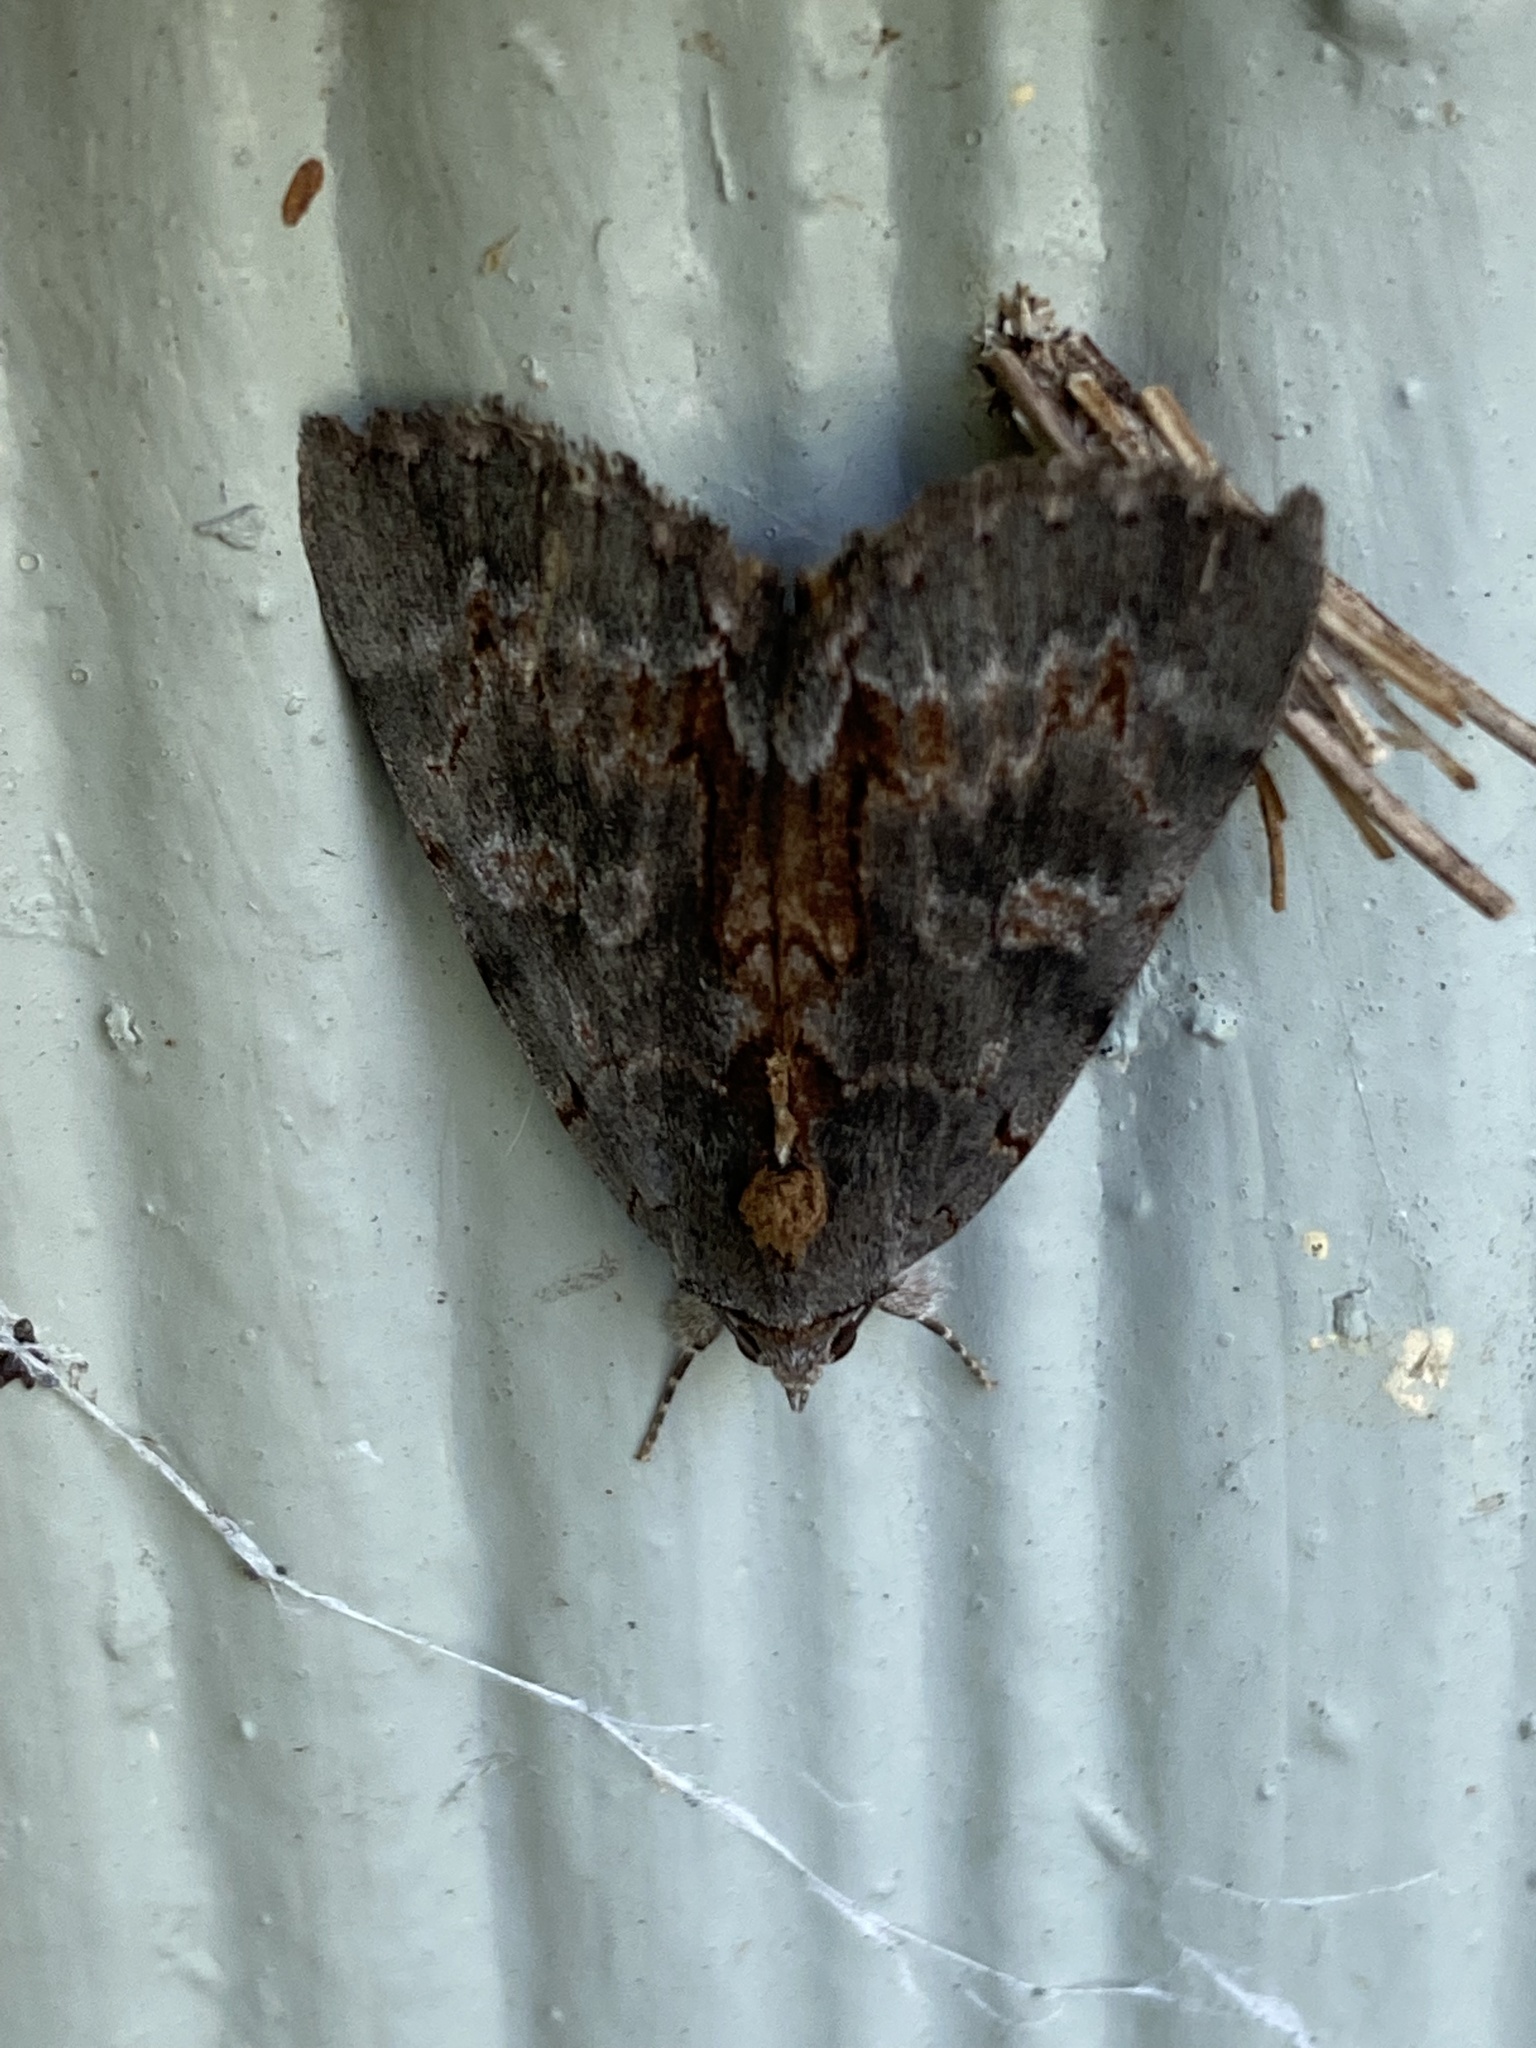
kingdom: Animalia
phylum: Arthropoda
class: Insecta
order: Lepidoptera
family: Erebidae
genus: Catocala
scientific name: Catocala grynea
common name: Woody underwing
